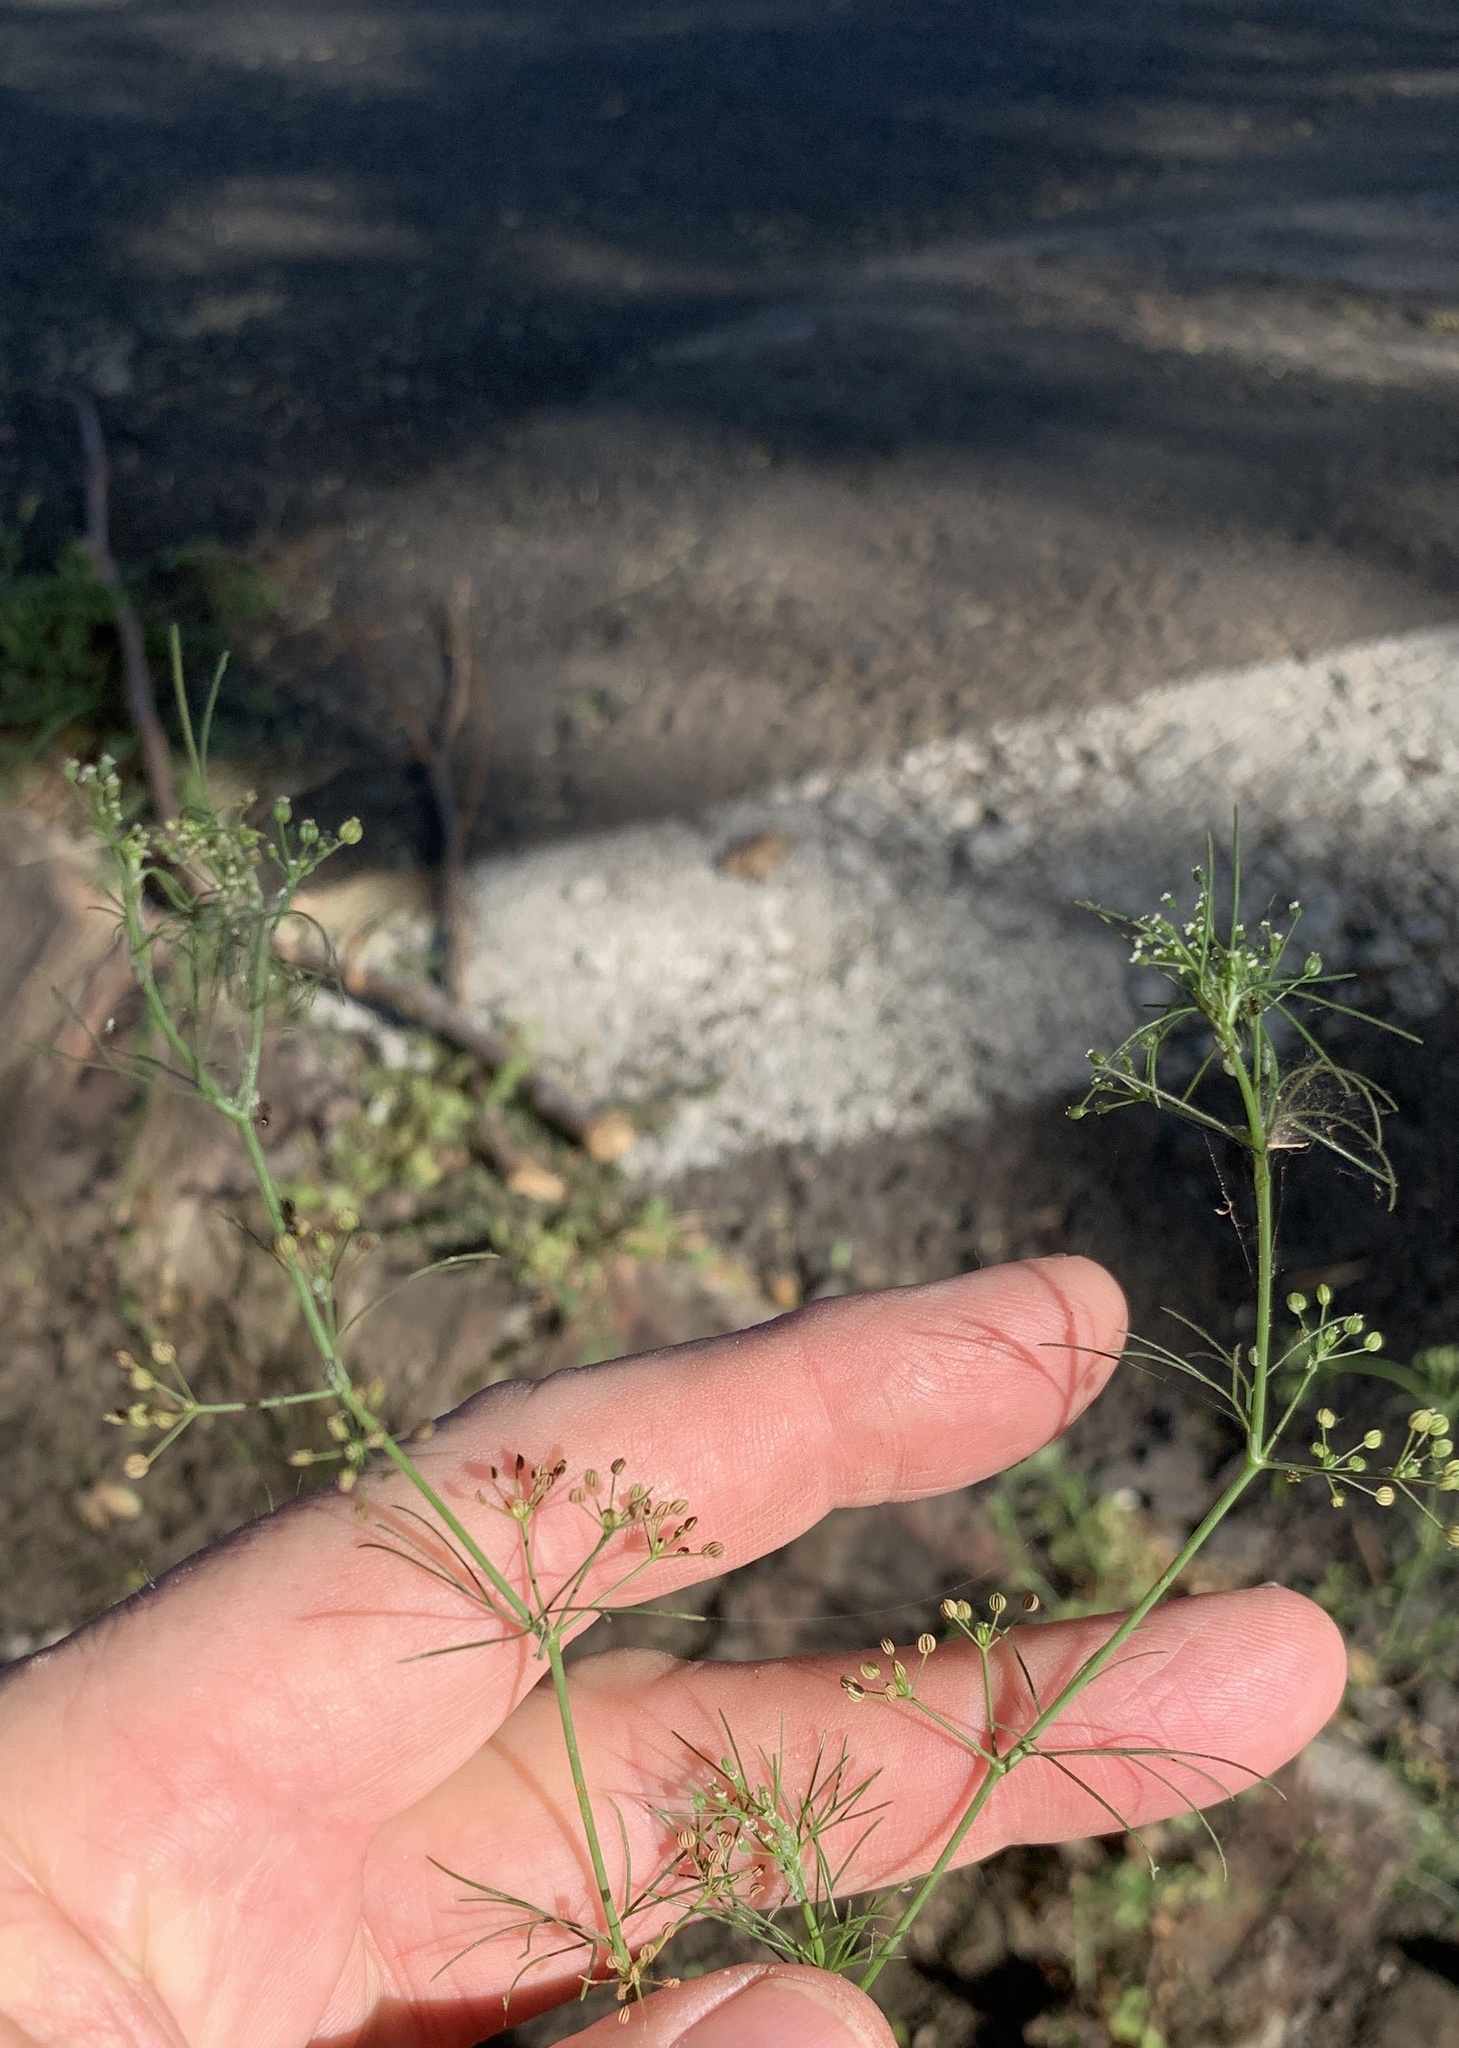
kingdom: Plantae
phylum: Tracheophyta
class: Magnoliopsida
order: Apiales
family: Apiaceae
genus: Cyclospermum
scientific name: Cyclospermum leptophyllum
